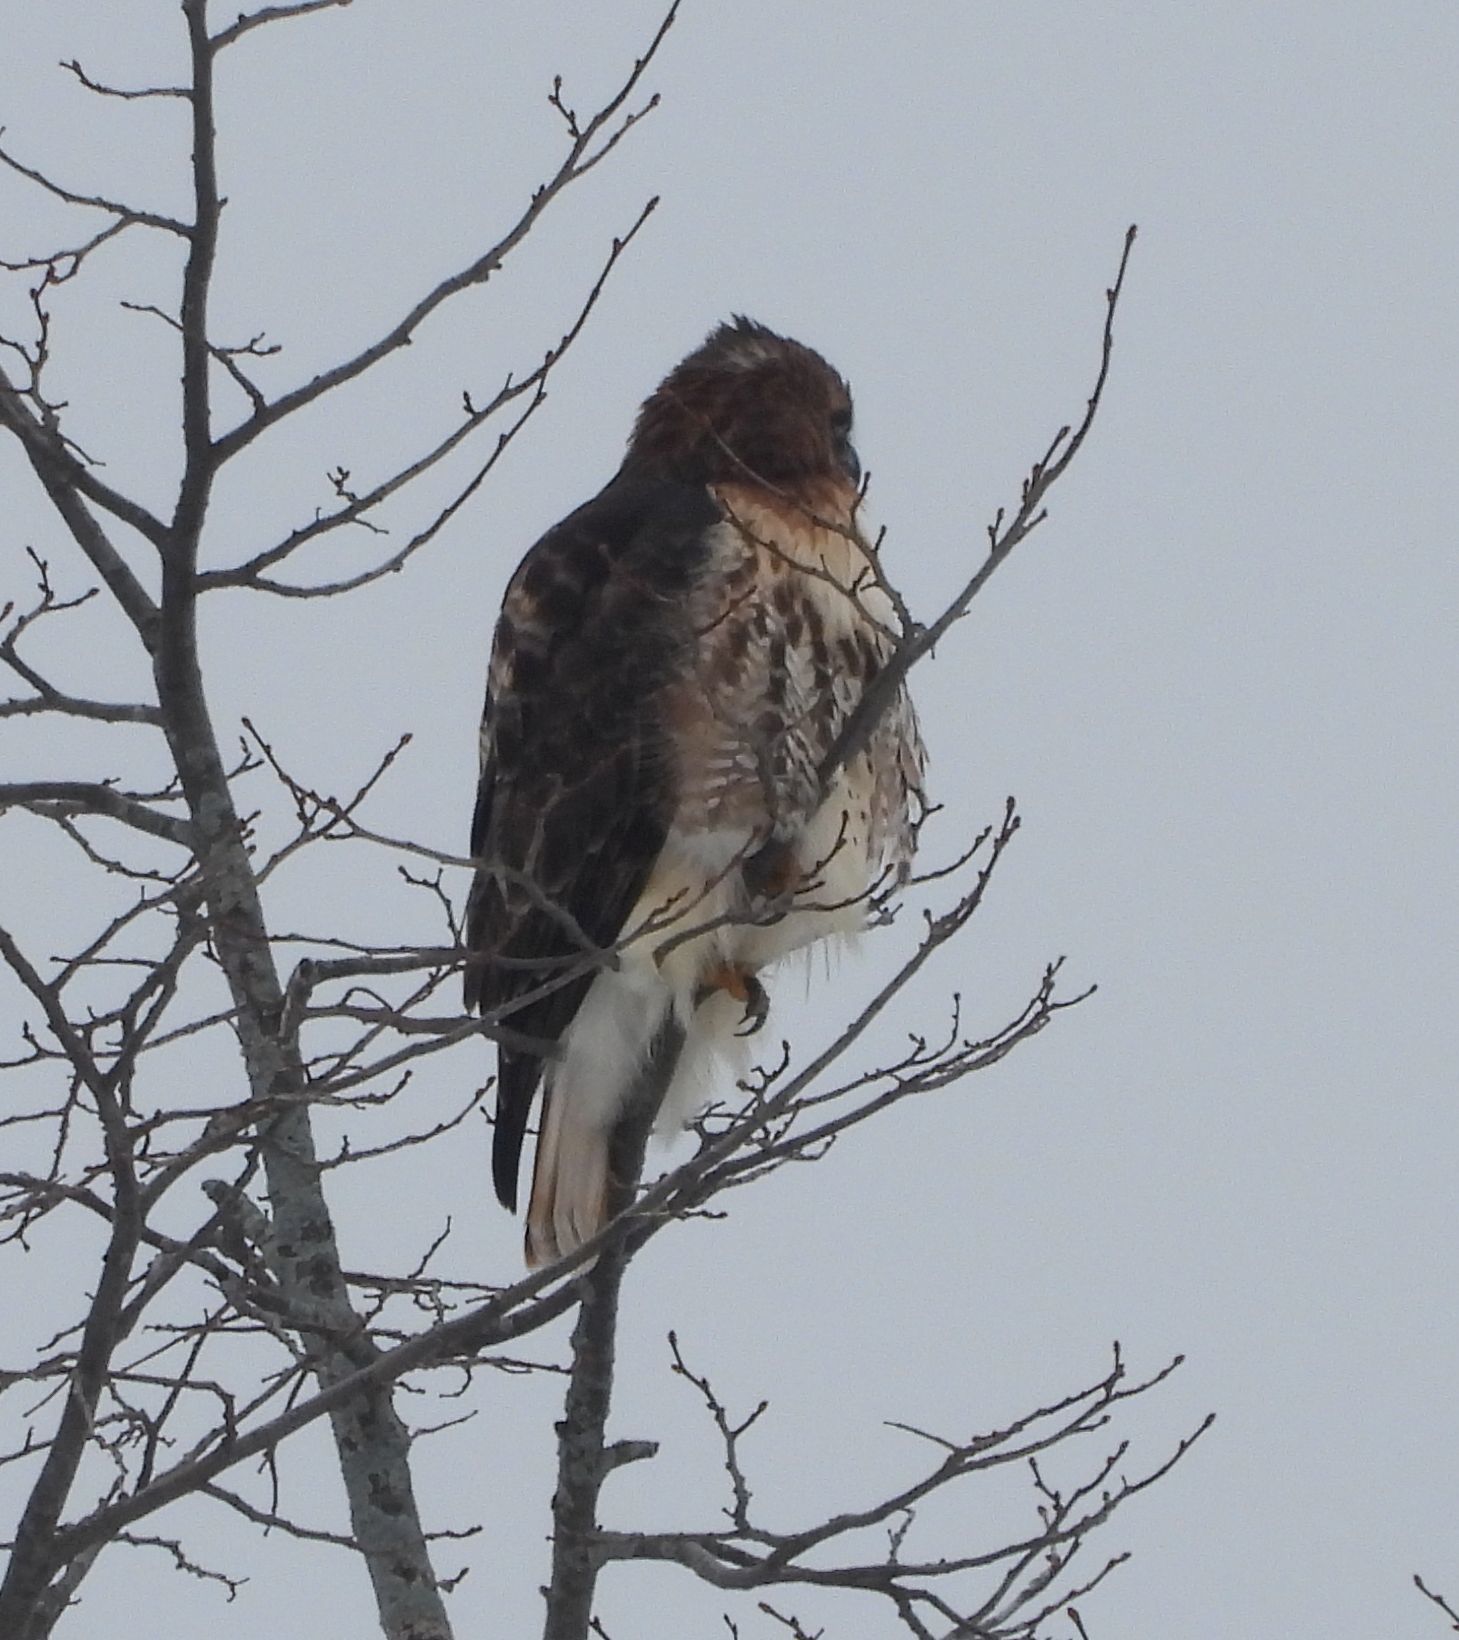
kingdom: Animalia
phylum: Chordata
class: Aves
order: Accipitriformes
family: Accipitridae
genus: Buteo
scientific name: Buteo jamaicensis
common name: Red-tailed hawk
